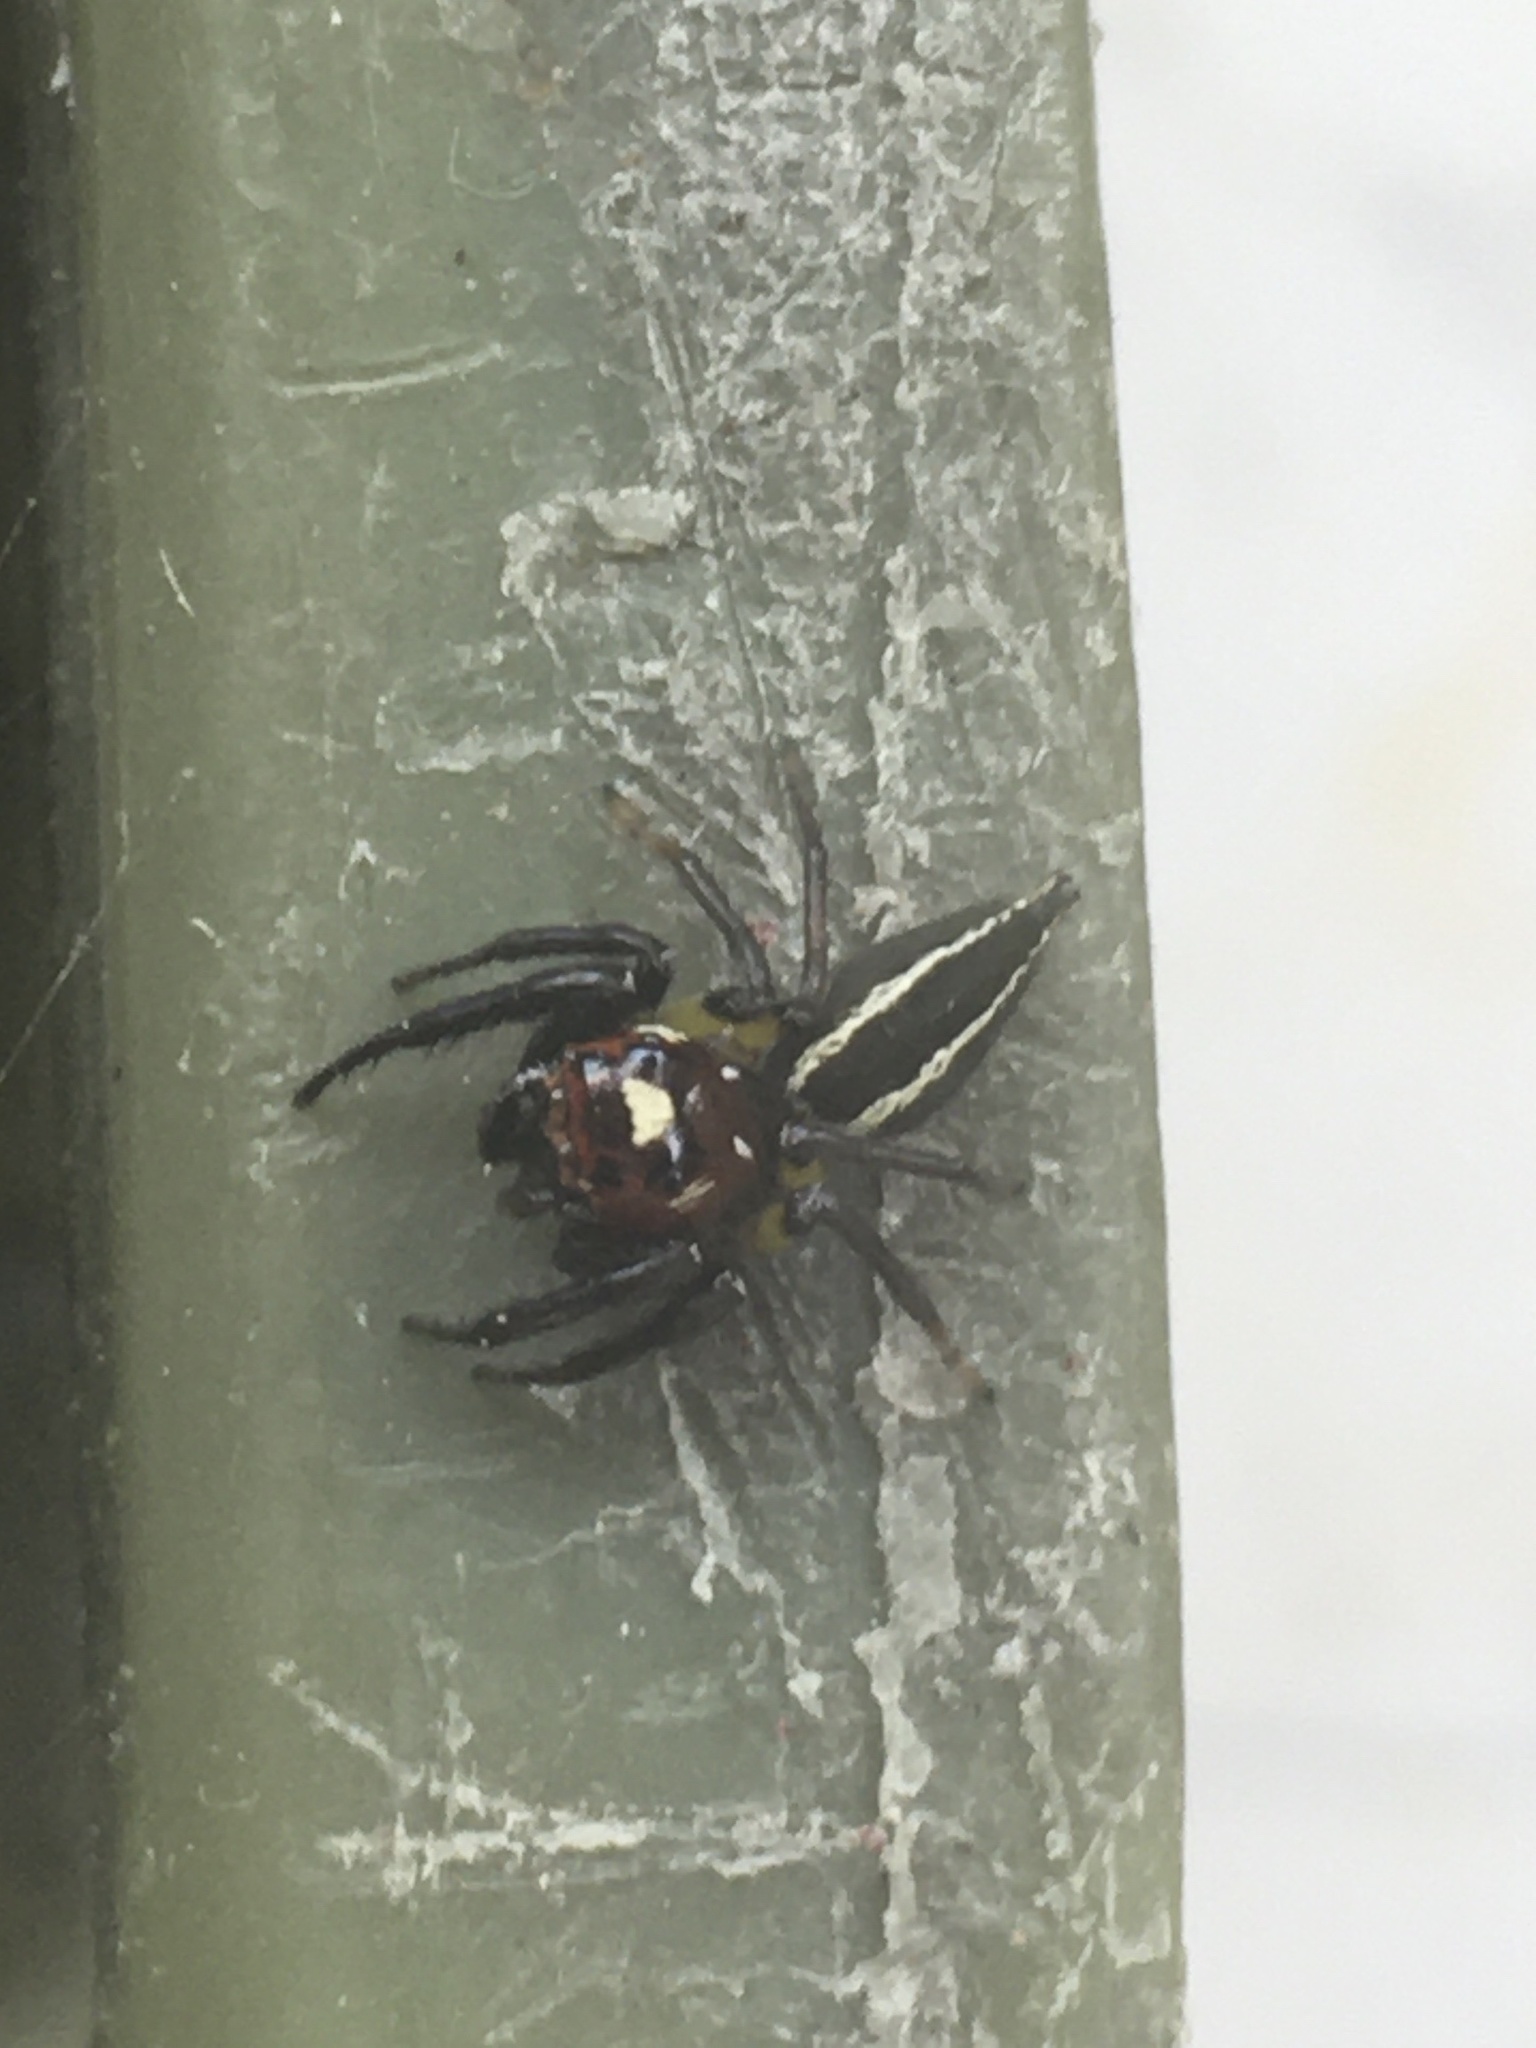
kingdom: Animalia
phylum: Arthropoda
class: Arachnida
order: Araneae
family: Salticidae
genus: Colonus
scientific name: Colonus sylvanus
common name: Jumping spiders
